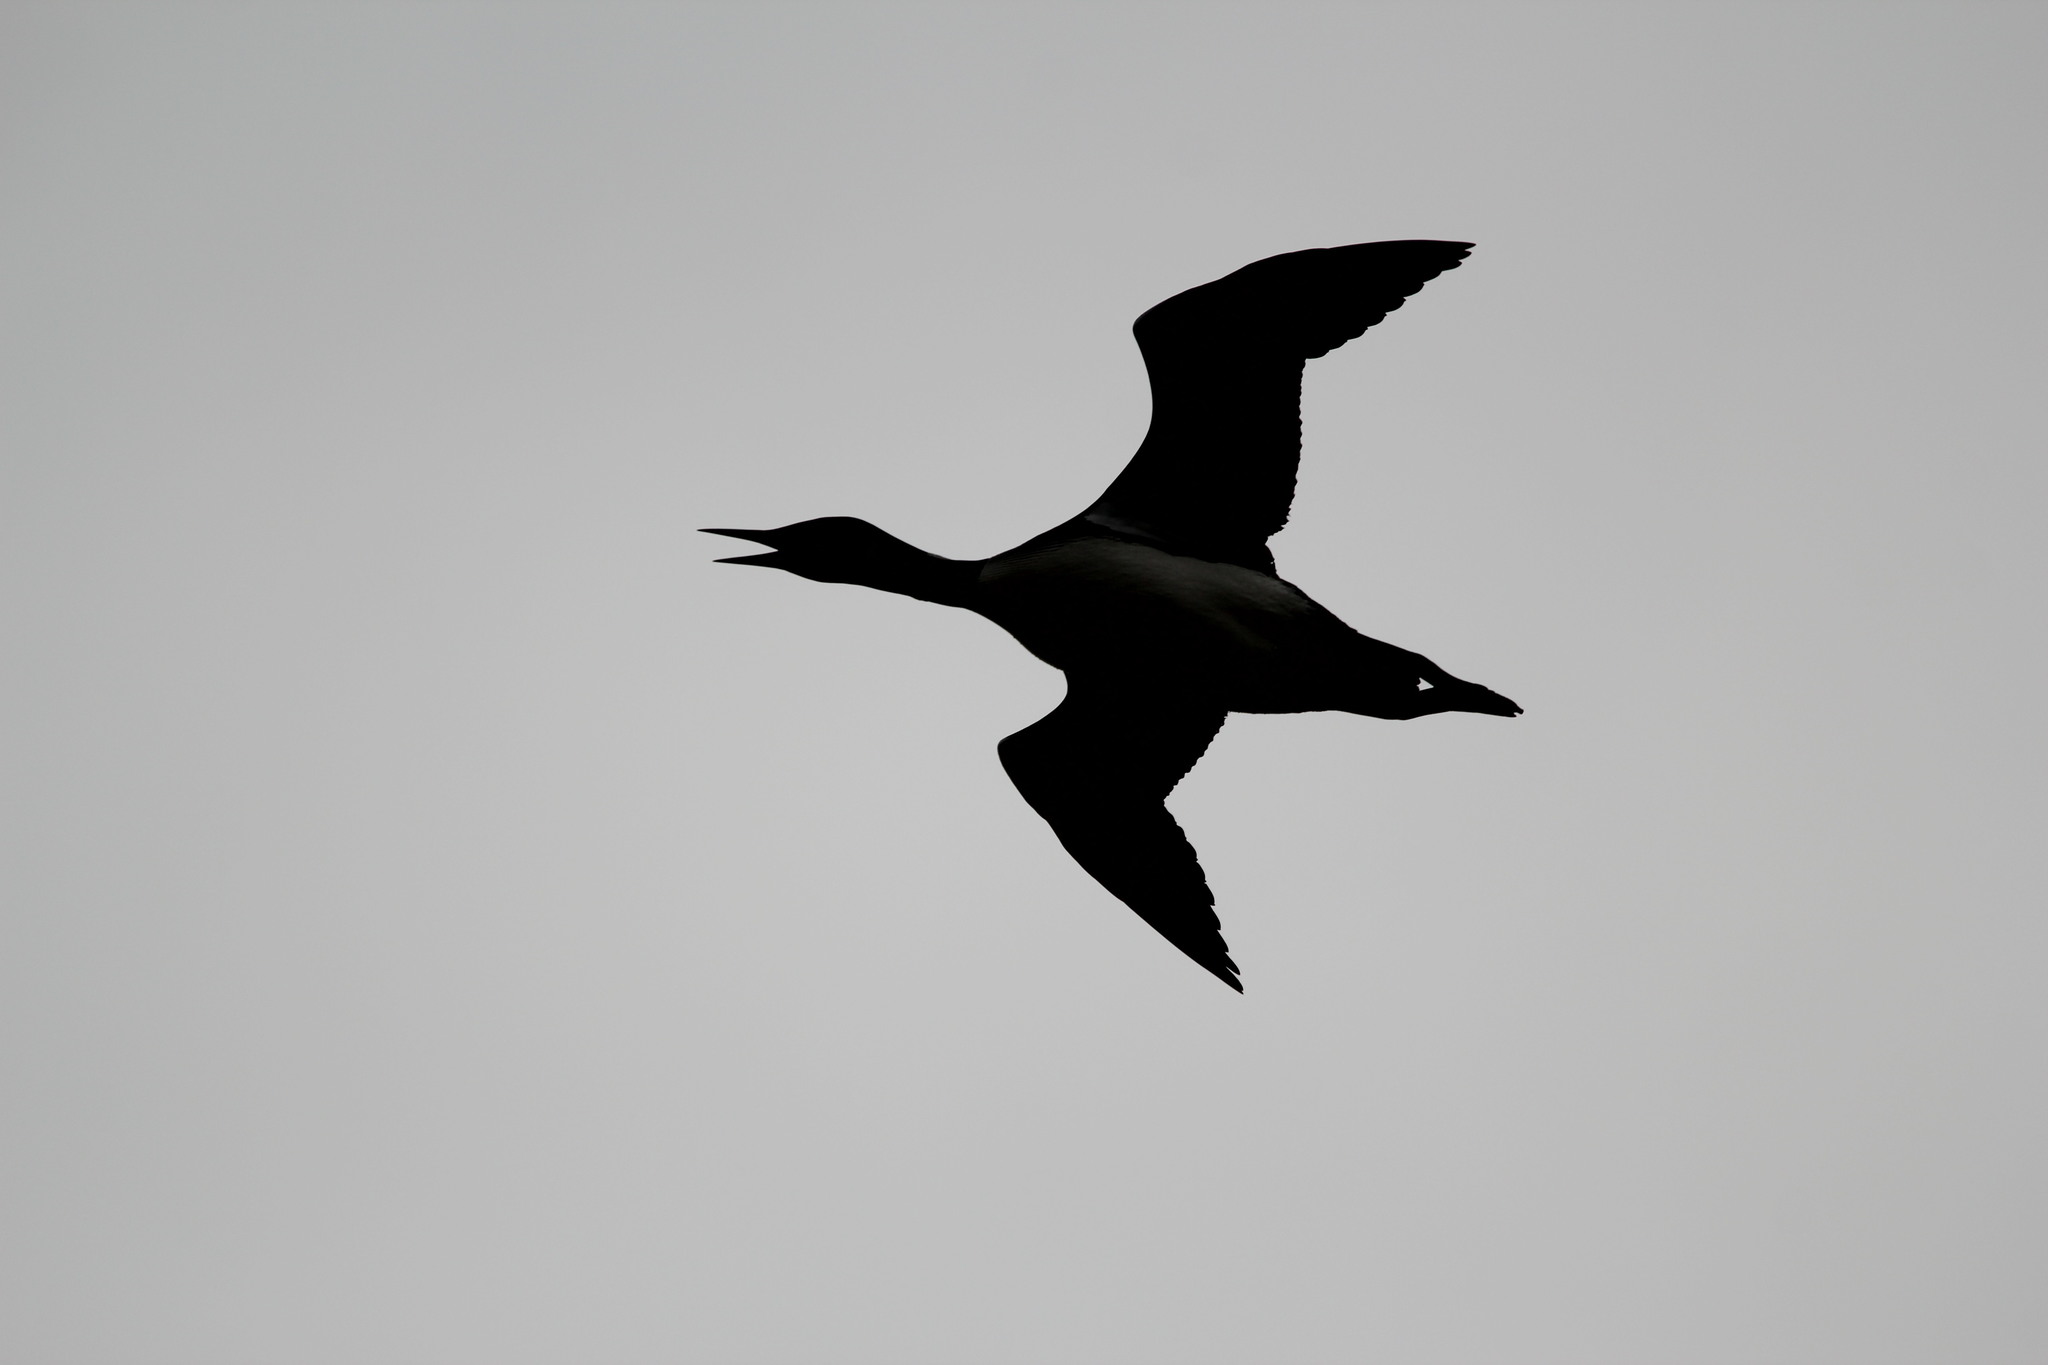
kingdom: Animalia
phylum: Chordata
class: Aves
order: Gaviiformes
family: Gaviidae
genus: Gavia
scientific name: Gavia immer
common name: Common loon
